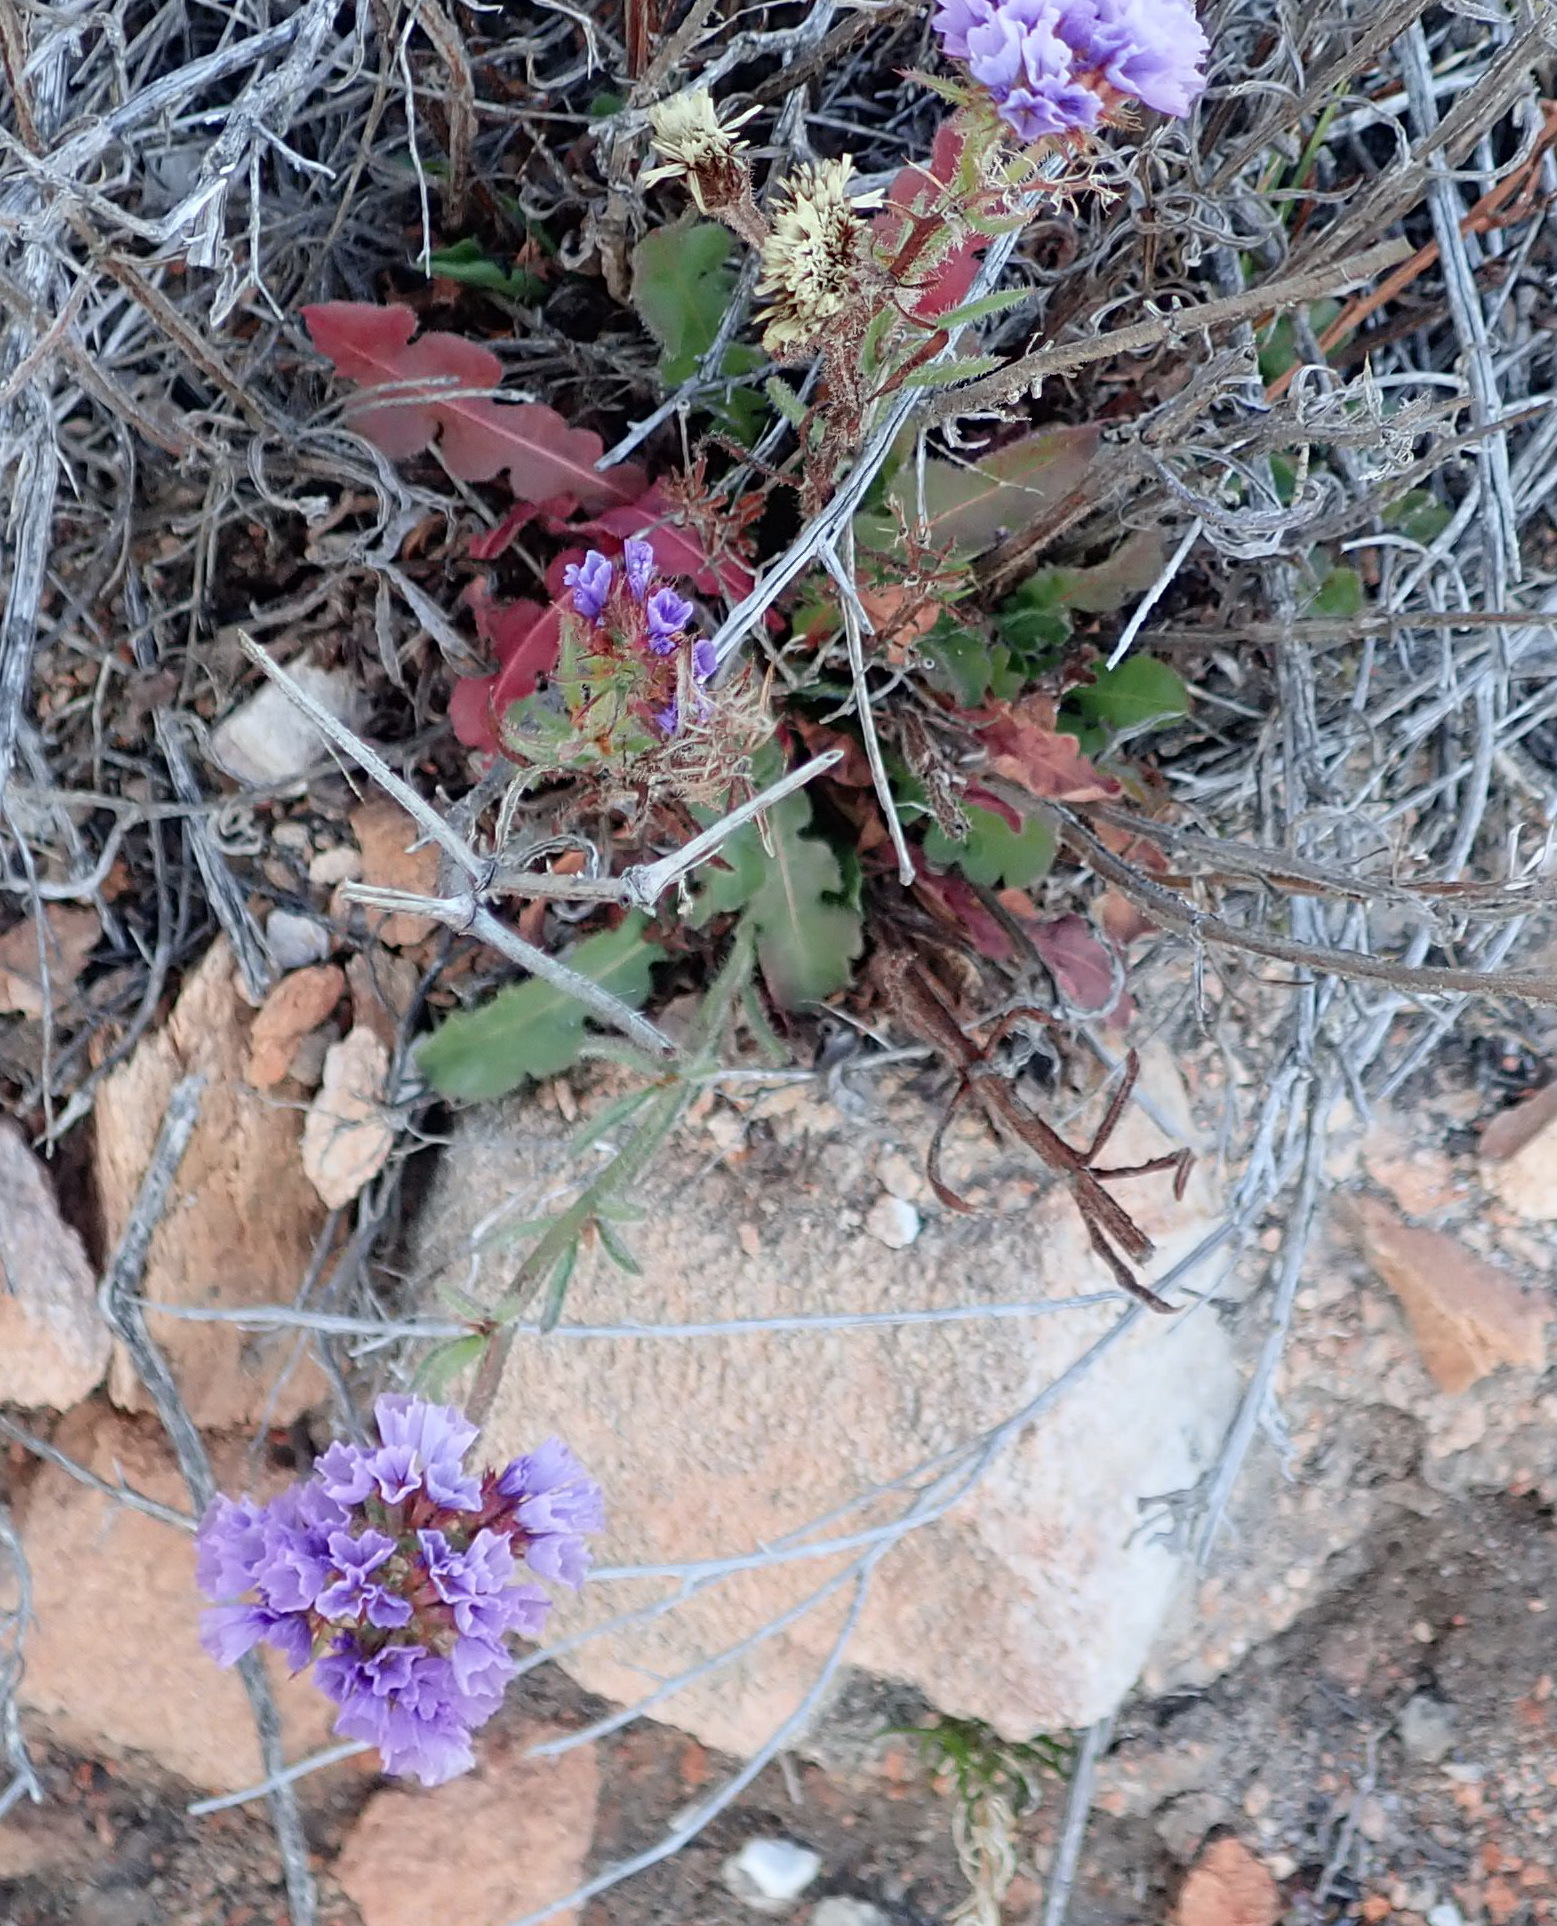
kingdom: Plantae
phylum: Tracheophyta
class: Magnoliopsida
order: Caryophyllales
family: Plumbaginaceae
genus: Limonium
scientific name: Limonium sinuatum
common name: Statice
